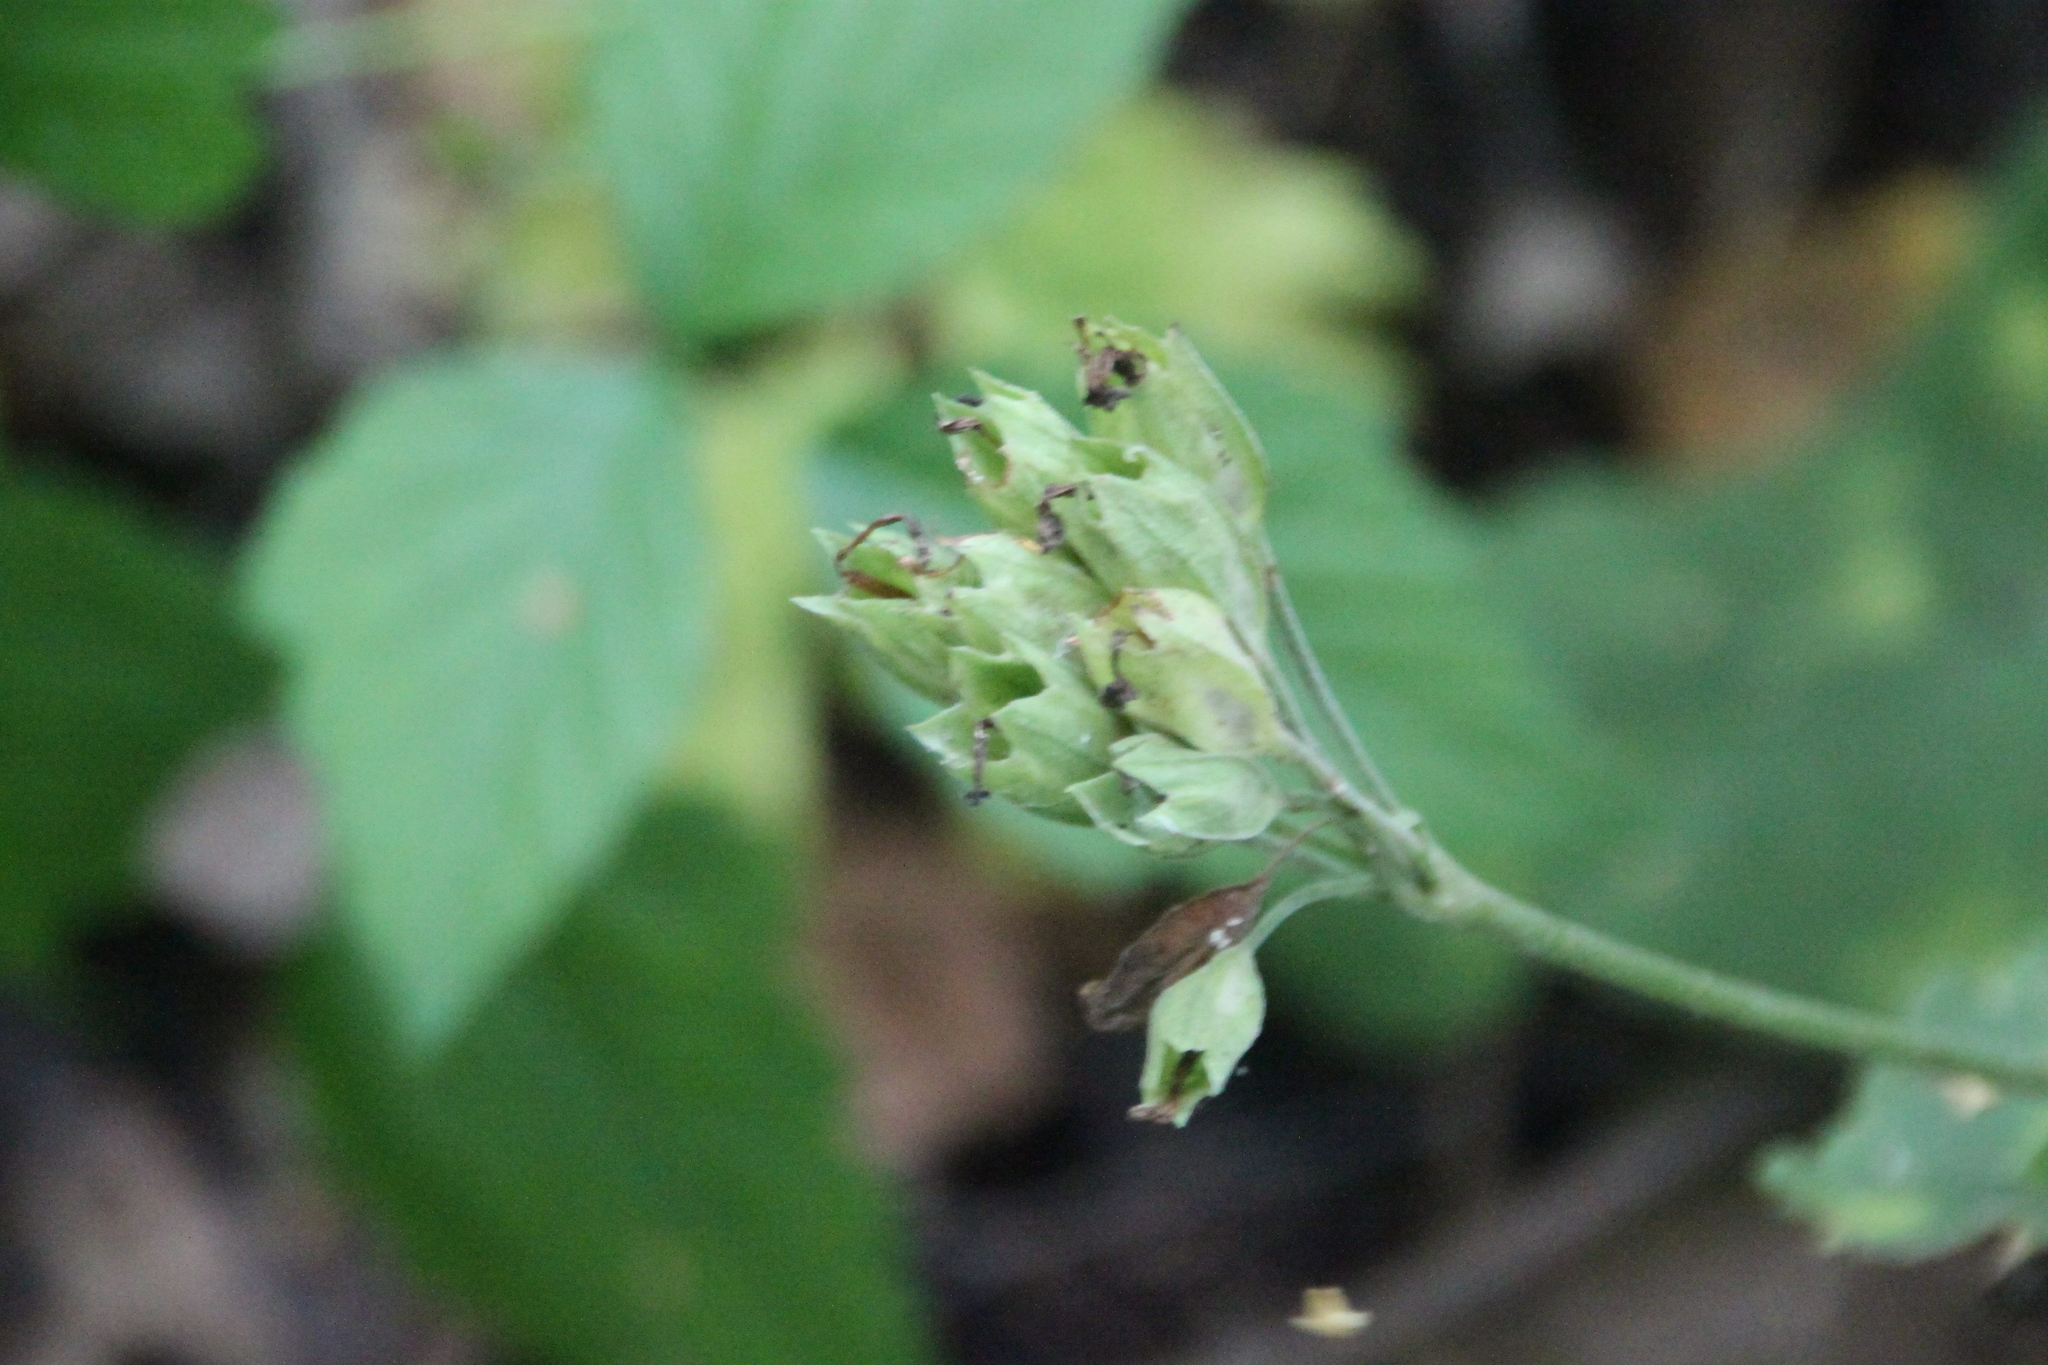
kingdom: Plantae
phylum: Tracheophyta
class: Magnoliopsida
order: Ericales
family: Primulaceae
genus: Primula
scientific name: Primula veris
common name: Cowslip
